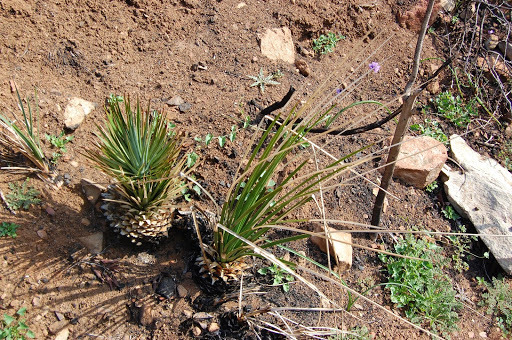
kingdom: Plantae
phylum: Tracheophyta
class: Liliopsida
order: Asparagales
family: Asparagaceae
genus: Hesperoyucca
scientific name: Hesperoyucca whipplei
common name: Our lord's-candle
